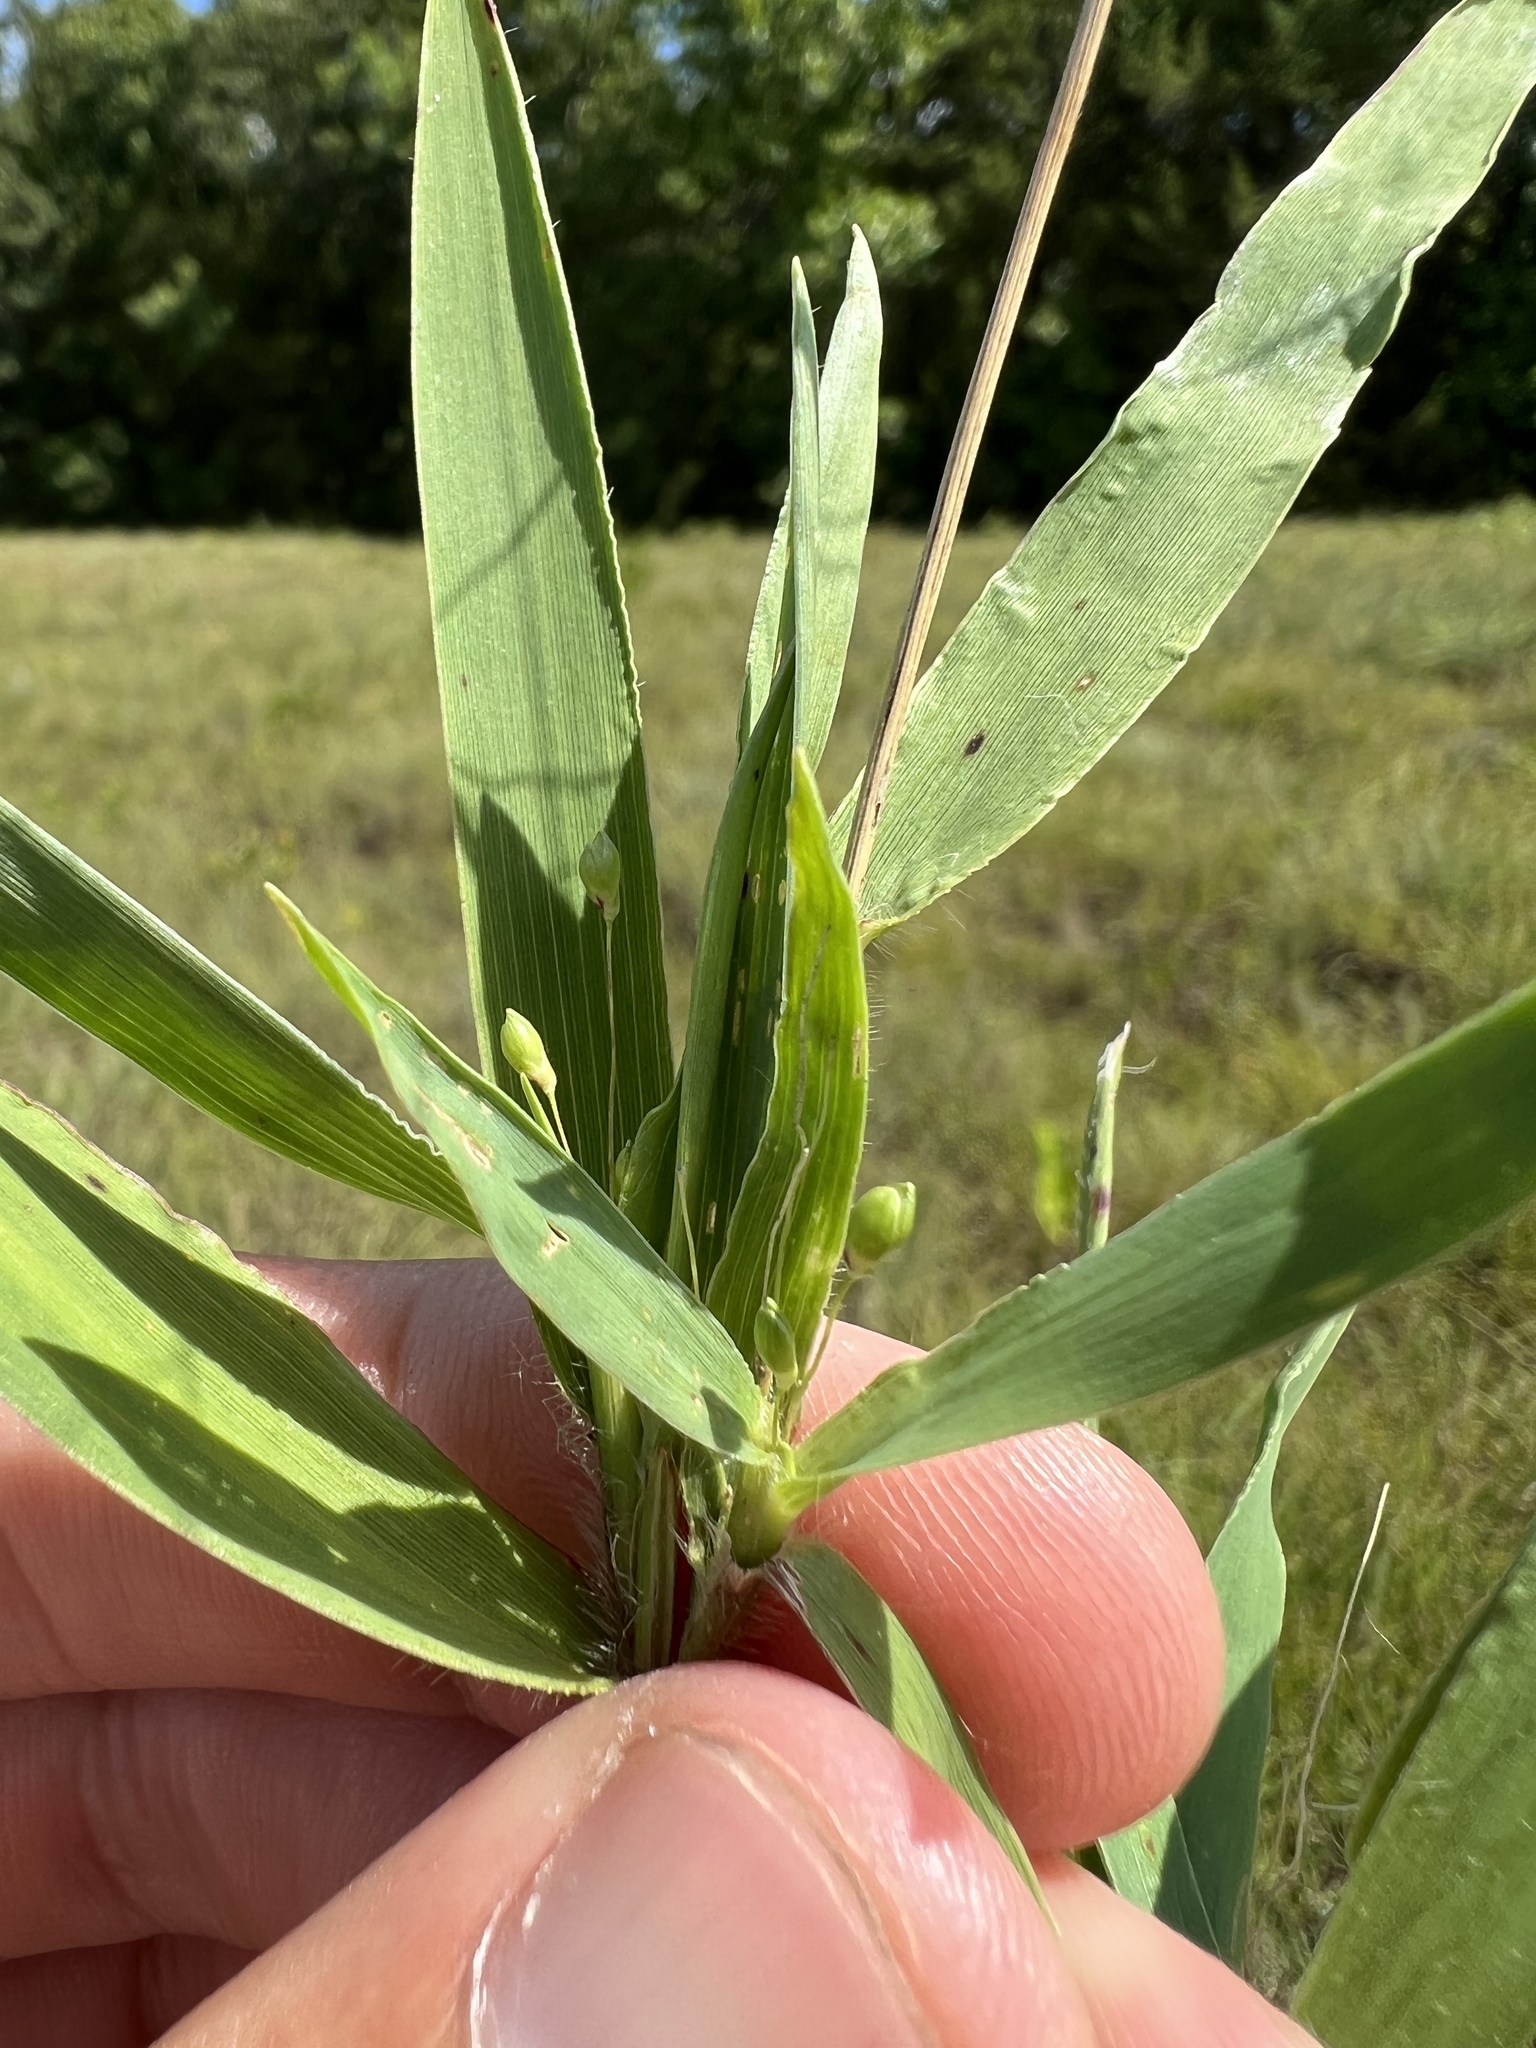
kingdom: Plantae
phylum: Tracheophyta
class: Liliopsida
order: Poales
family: Poaceae
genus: Dichanthelium
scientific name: Dichanthelium scribnerianum
